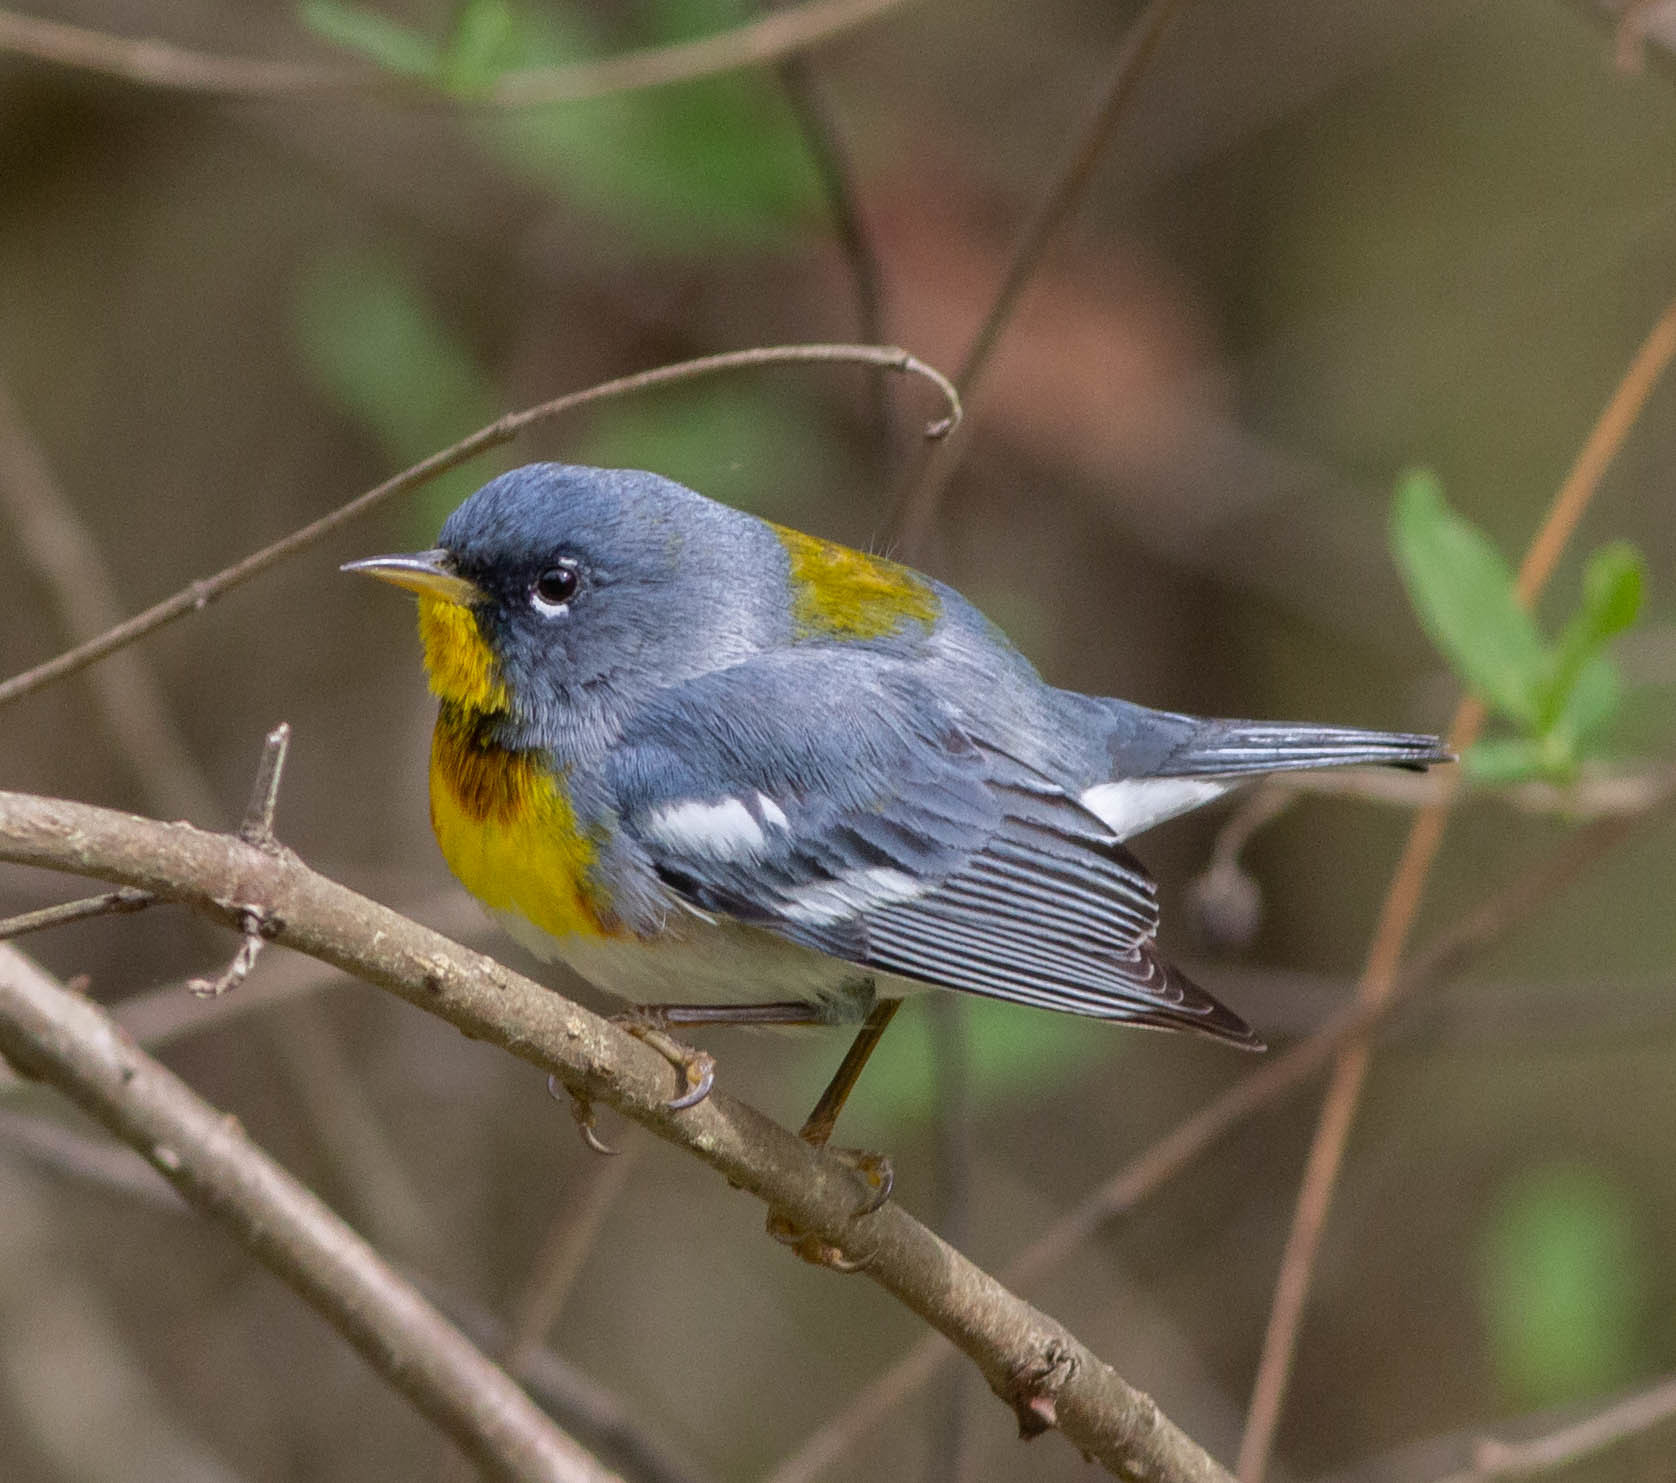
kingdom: Animalia
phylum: Chordata
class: Aves
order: Passeriformes
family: Parulidae
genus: Setophaga
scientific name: Setophaga americana
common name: Northern parula
